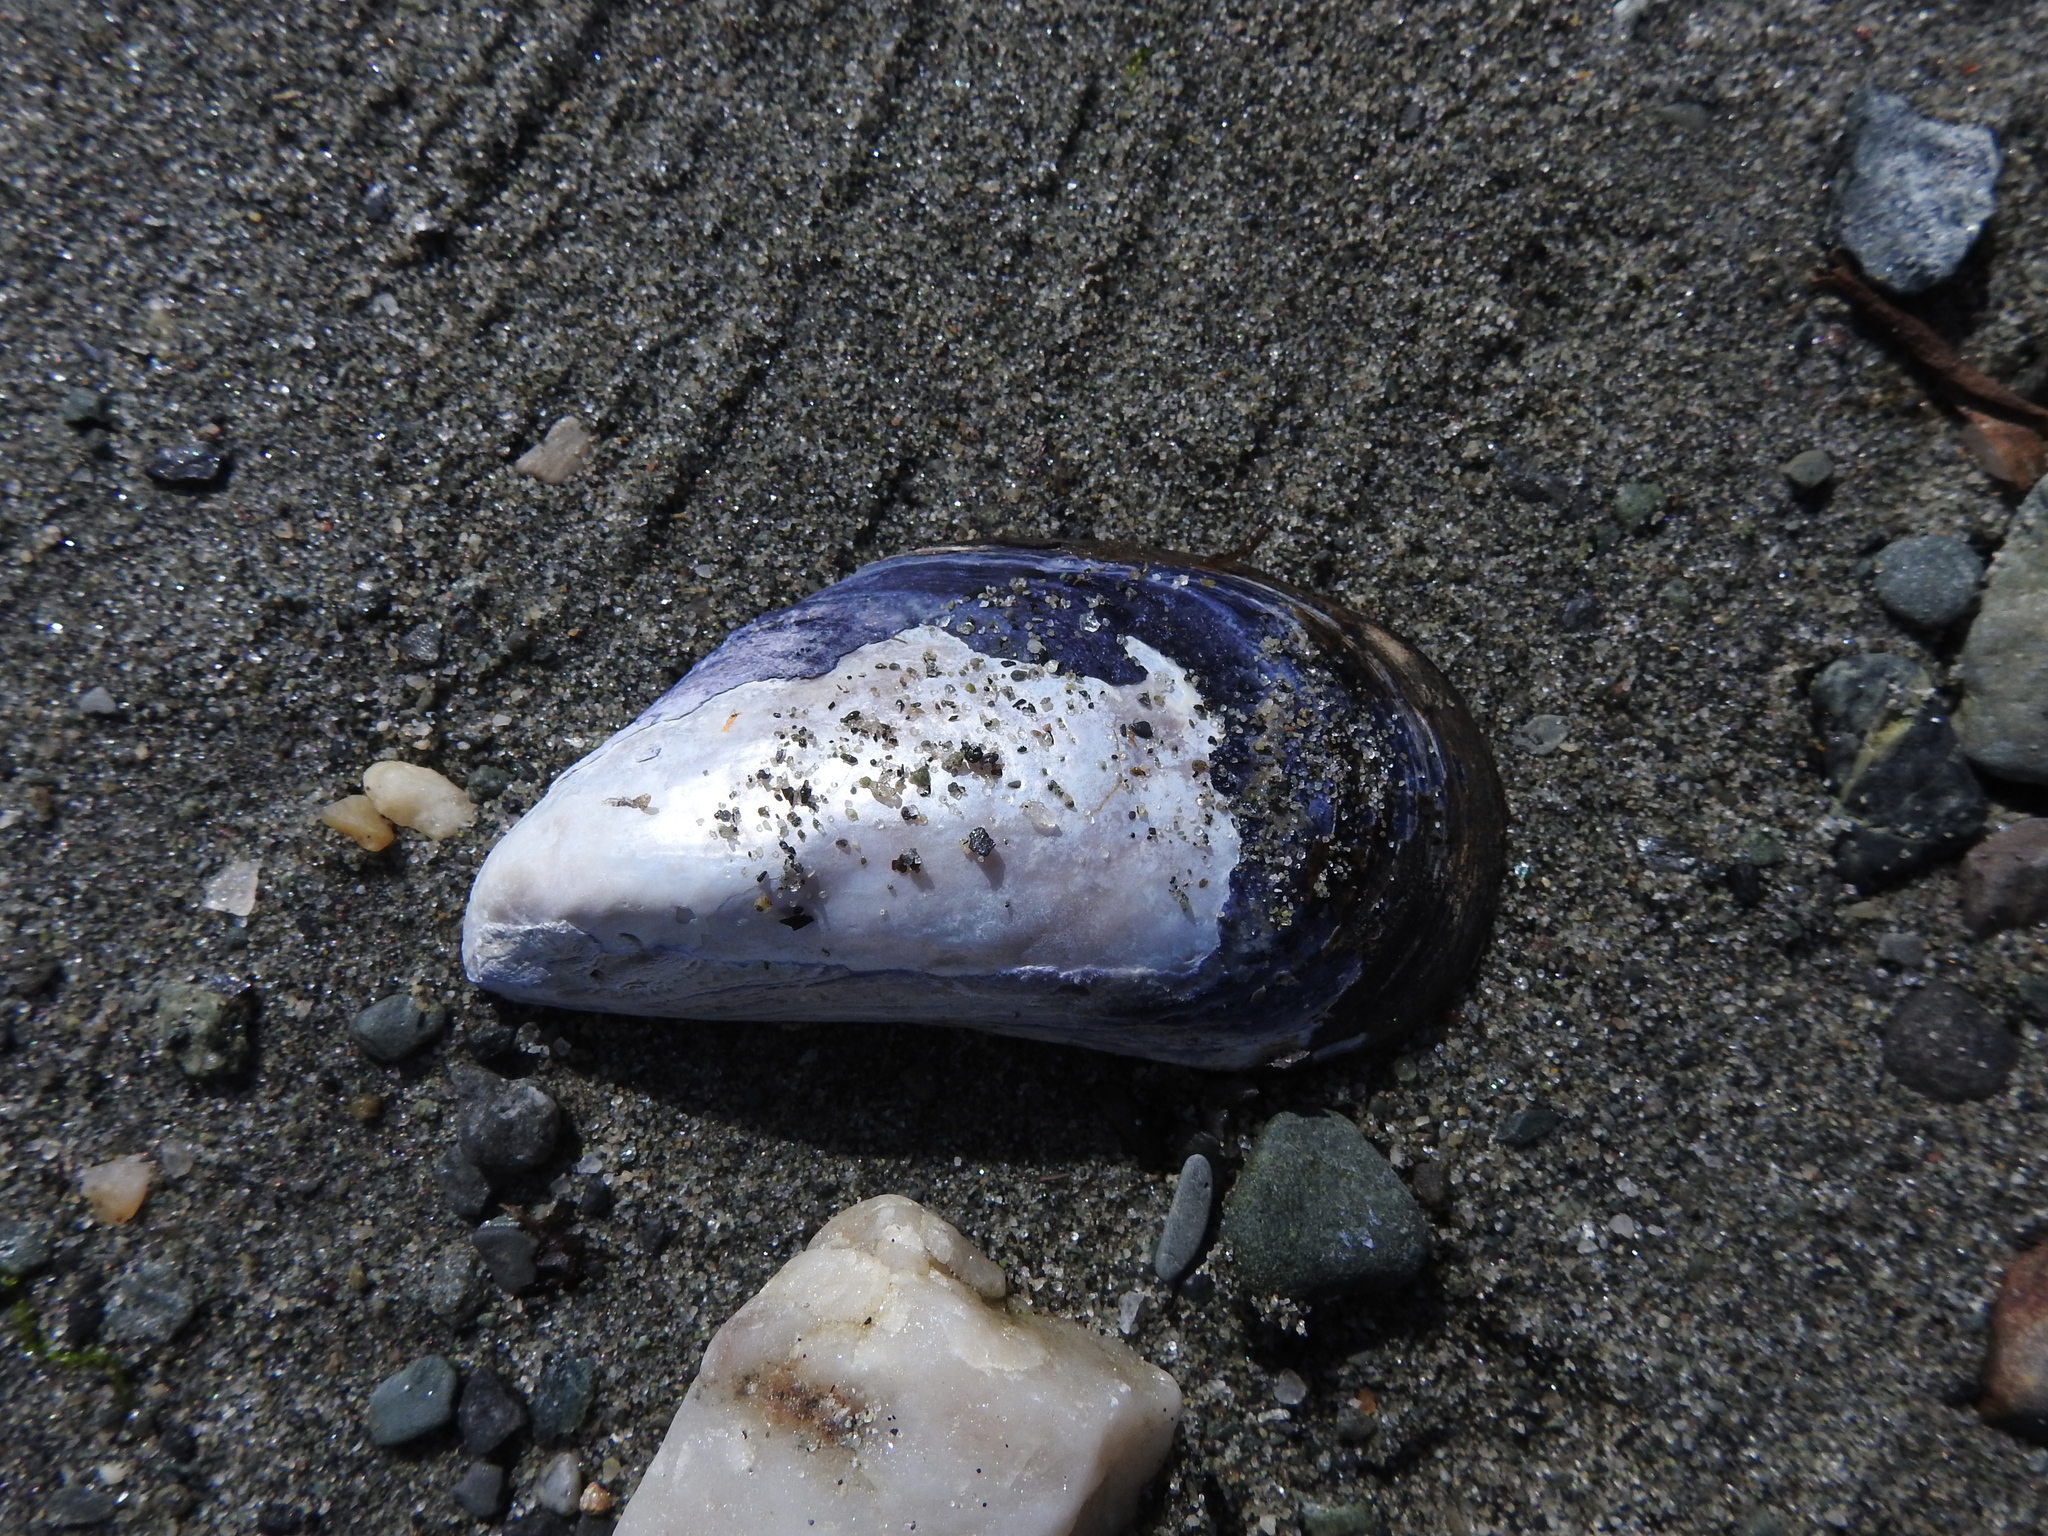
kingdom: Animalia
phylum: Mollusca
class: Bivalvia
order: Mytilida
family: Mytilidae
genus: Mytilus
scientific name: Mytilus edulis
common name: Blue mussel
